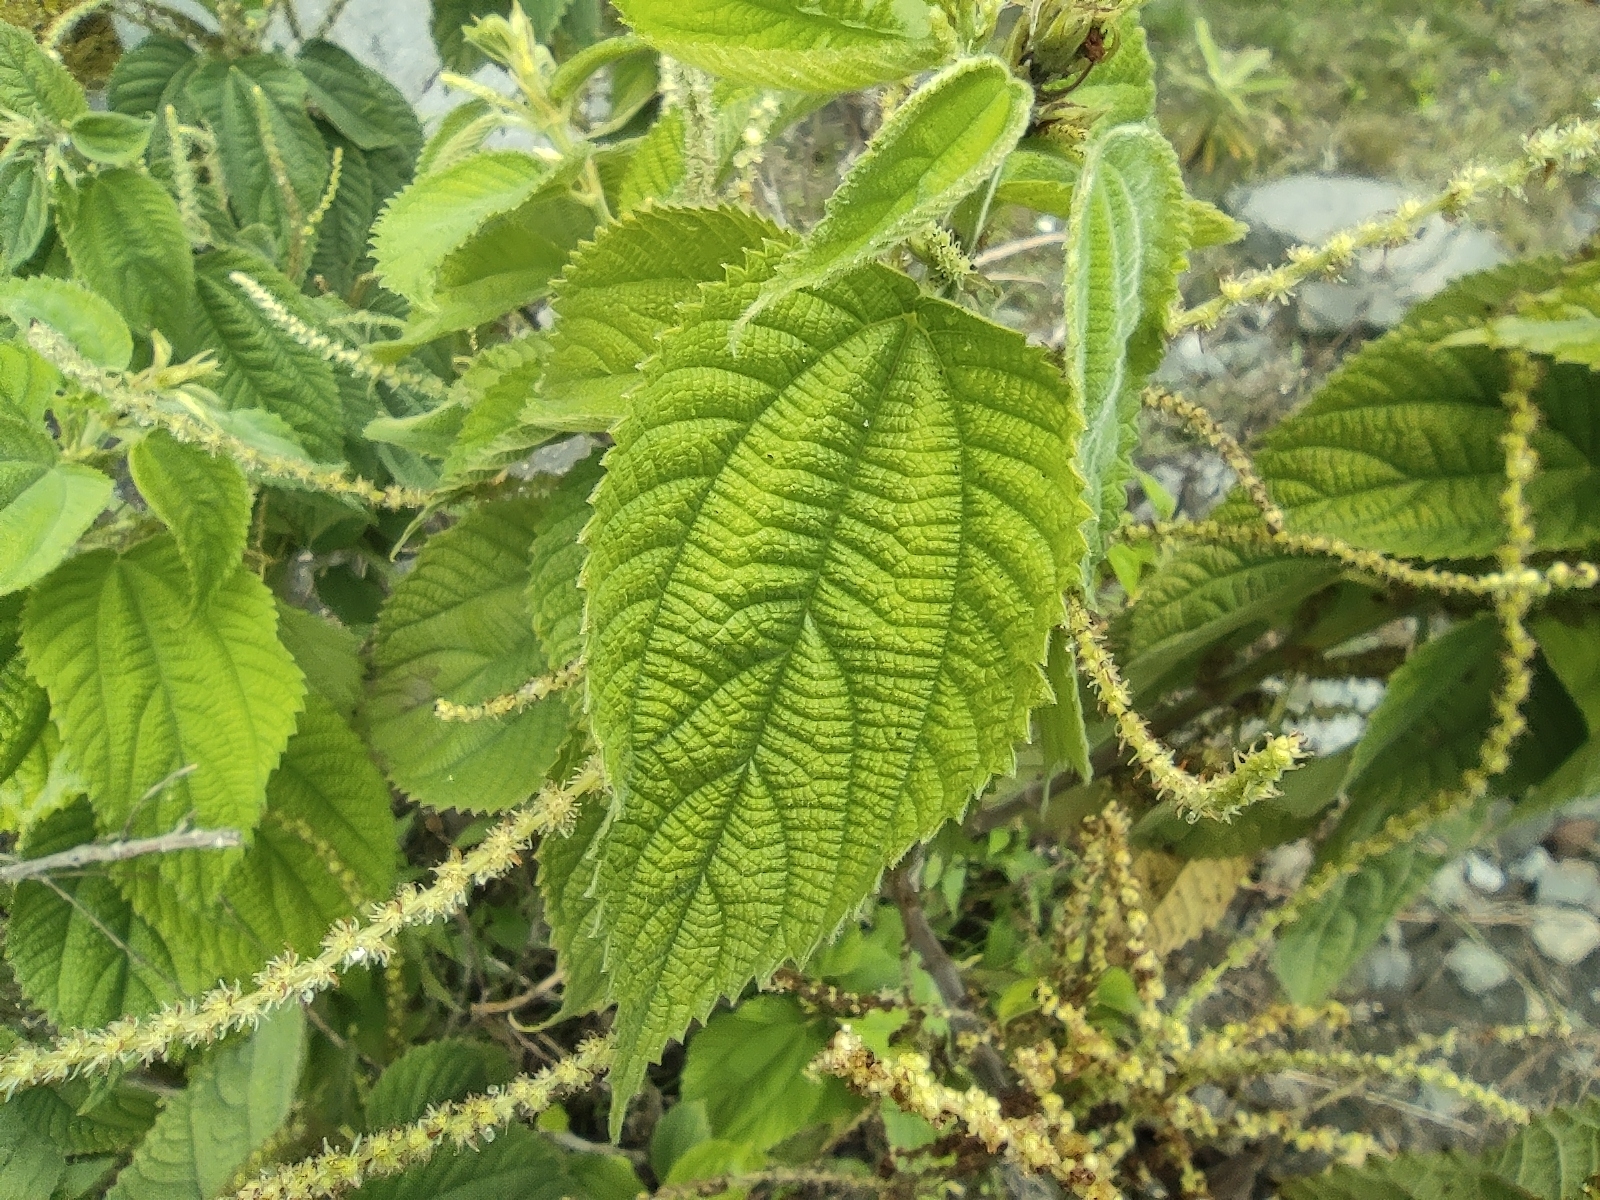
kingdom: Plantae
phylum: Tracheophyta
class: Magnoliopsida
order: Rosales
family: Urticaceae
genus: Boehmeria
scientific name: Boehmeria
